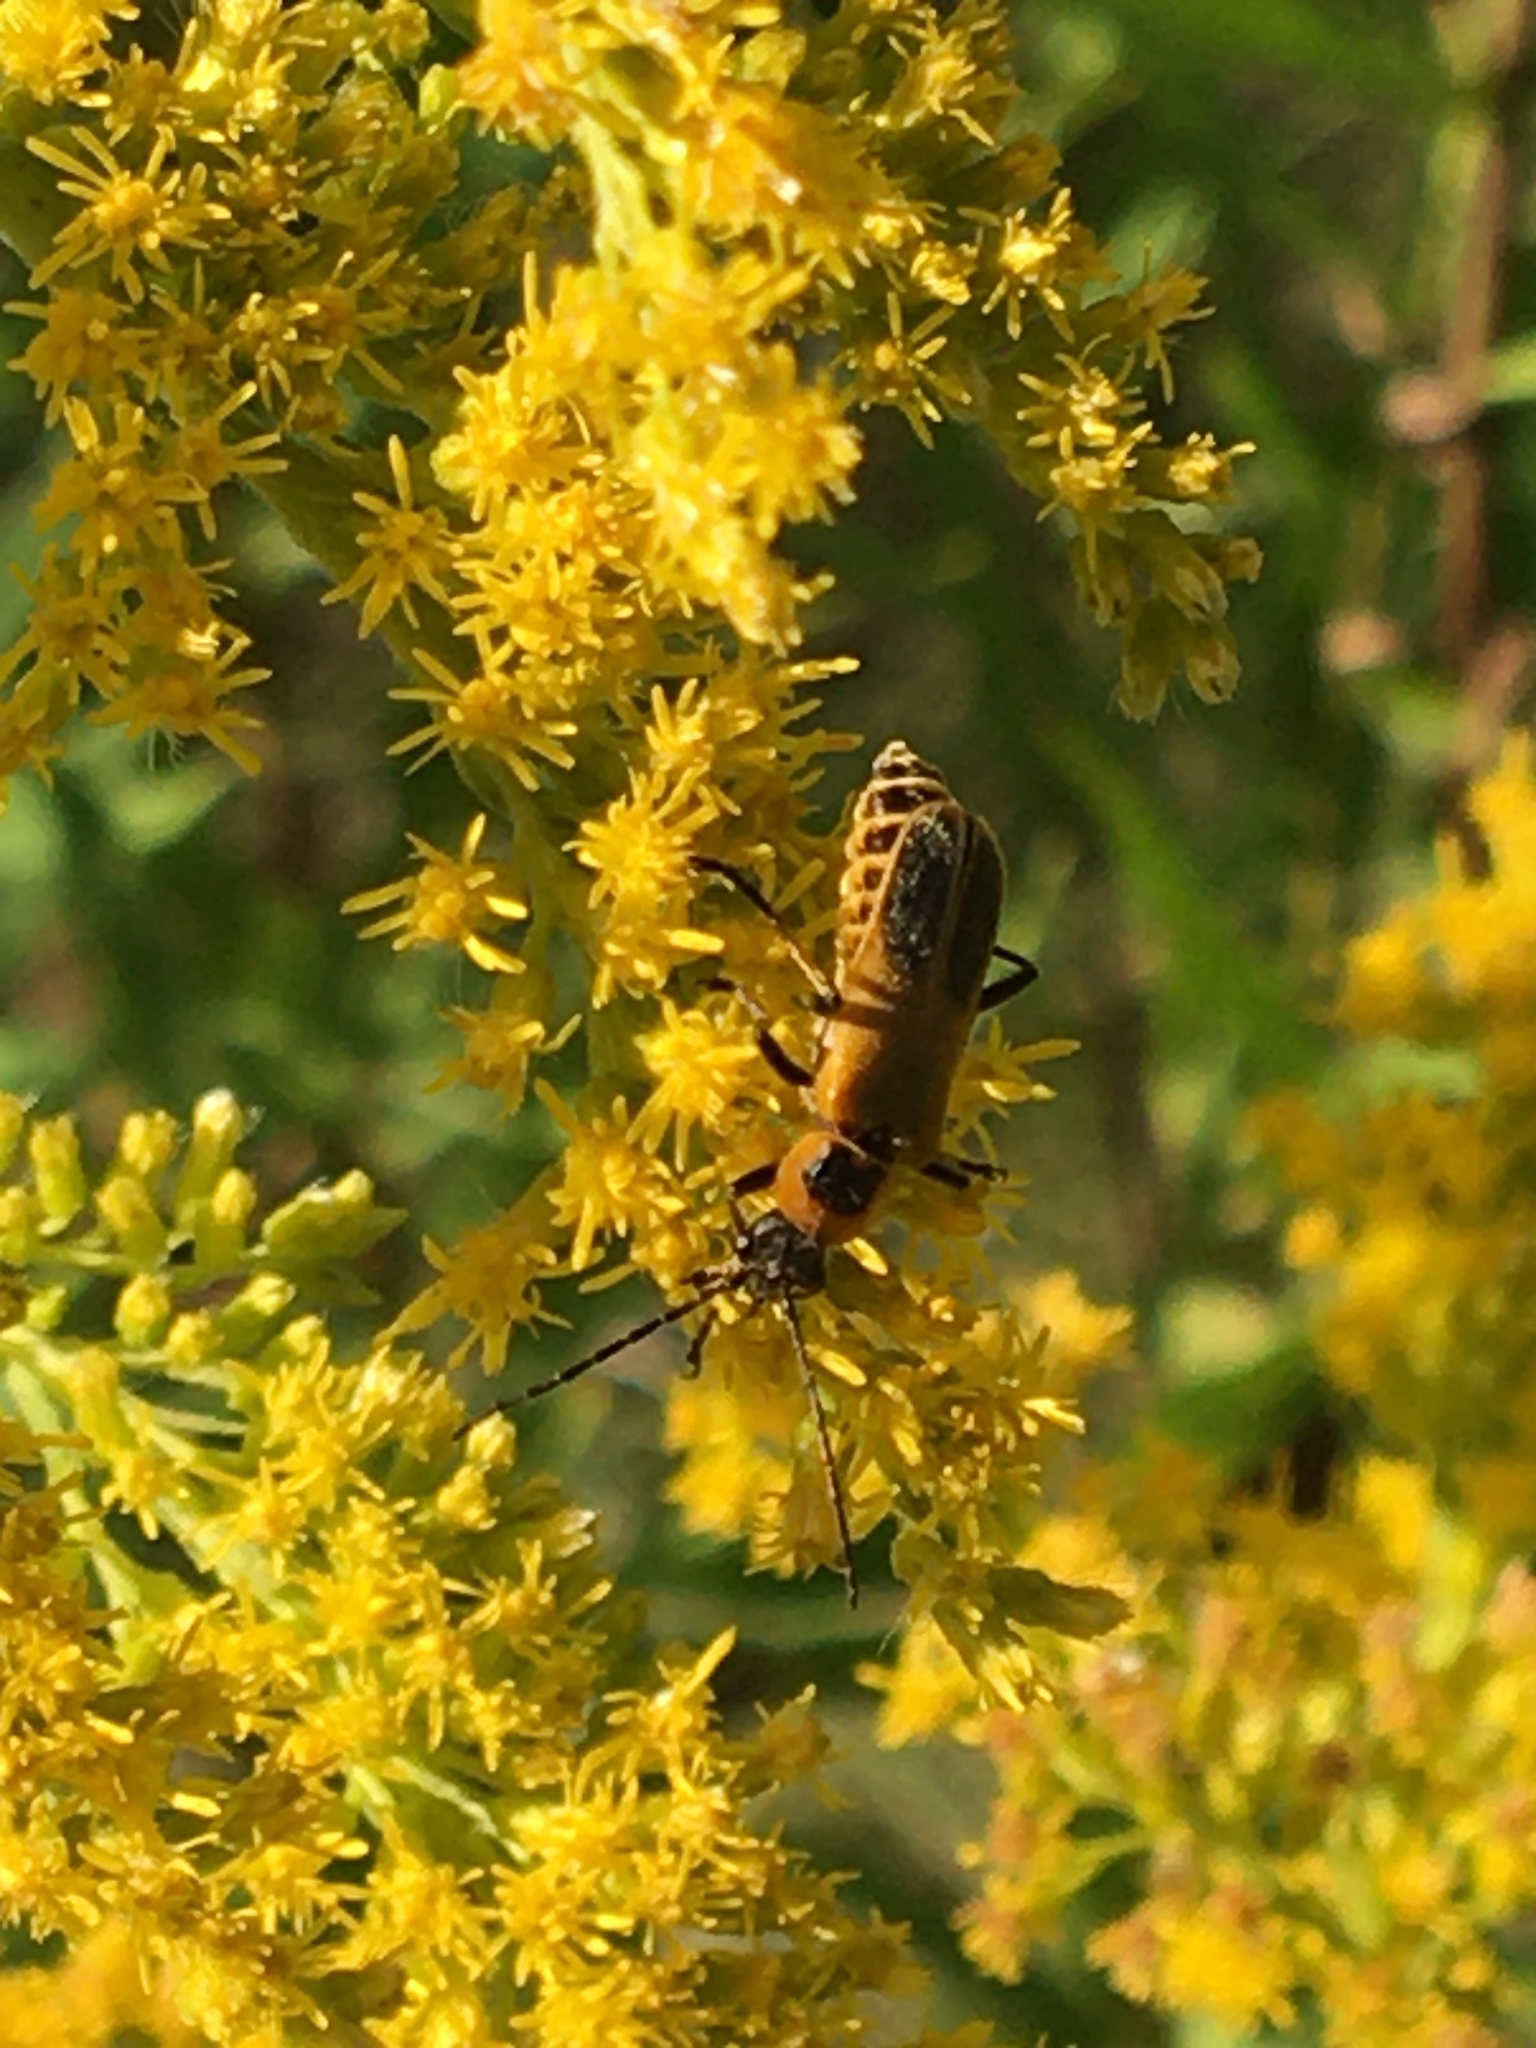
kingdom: Animalia
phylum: Arthropoda
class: Insecta
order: Coleoptera
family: Cantharidae
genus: Chauliognathus
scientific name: Chauliognathus pensylvanicus
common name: Goldenrod soldier beetle
